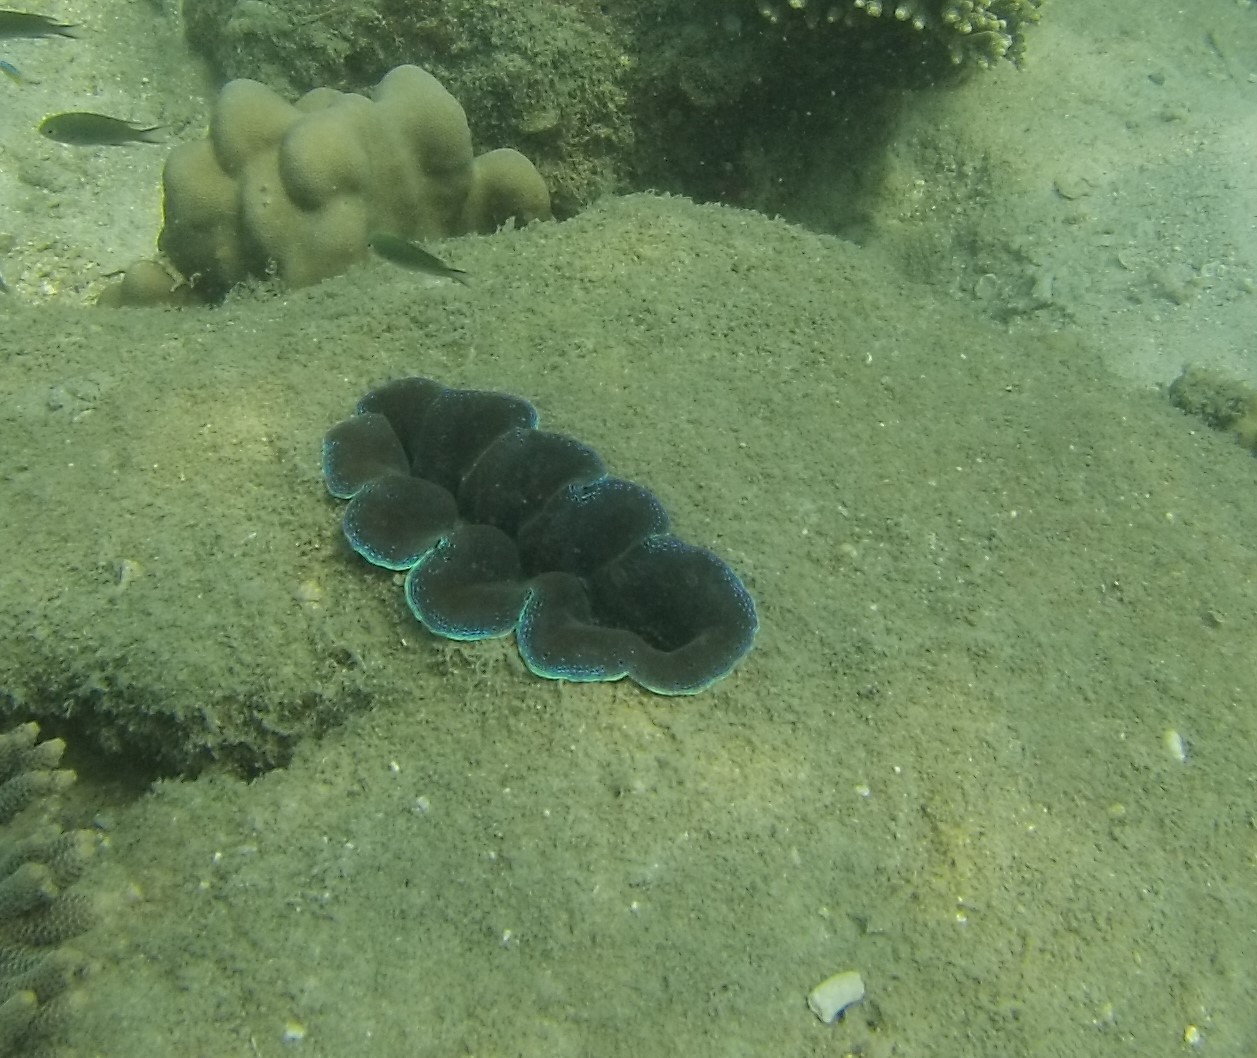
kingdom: Animalia
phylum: Mollusca
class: Bivalvia
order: Cardiida
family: Cardiidae
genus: Tridacna
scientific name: Tridacna crocea
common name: Boring clam
